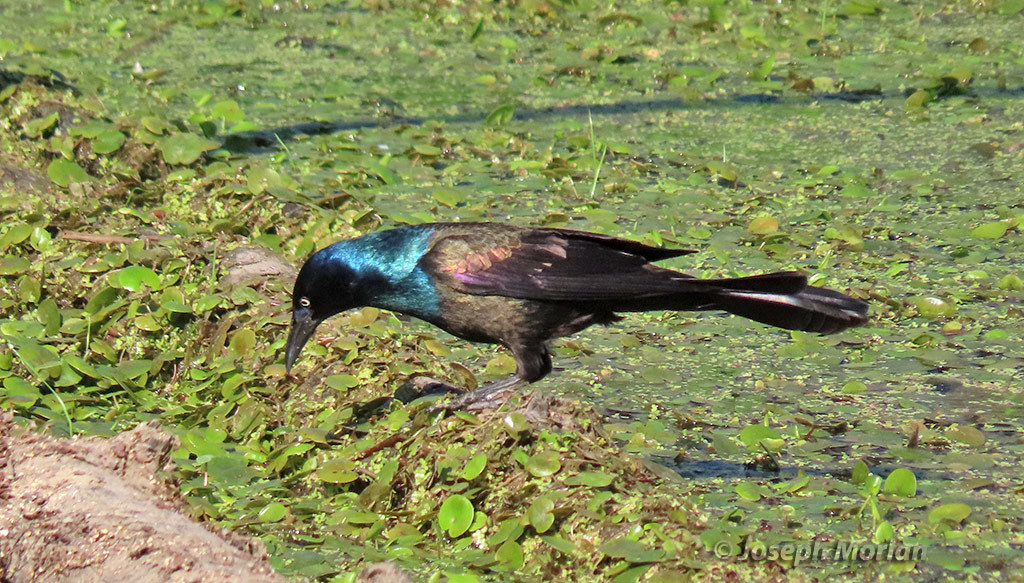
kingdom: Animalia
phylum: Chordata
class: Aves
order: Passeriformes
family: Icteridae
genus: Quiscalus
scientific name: Quiscalus quiscula
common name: Common grackle
